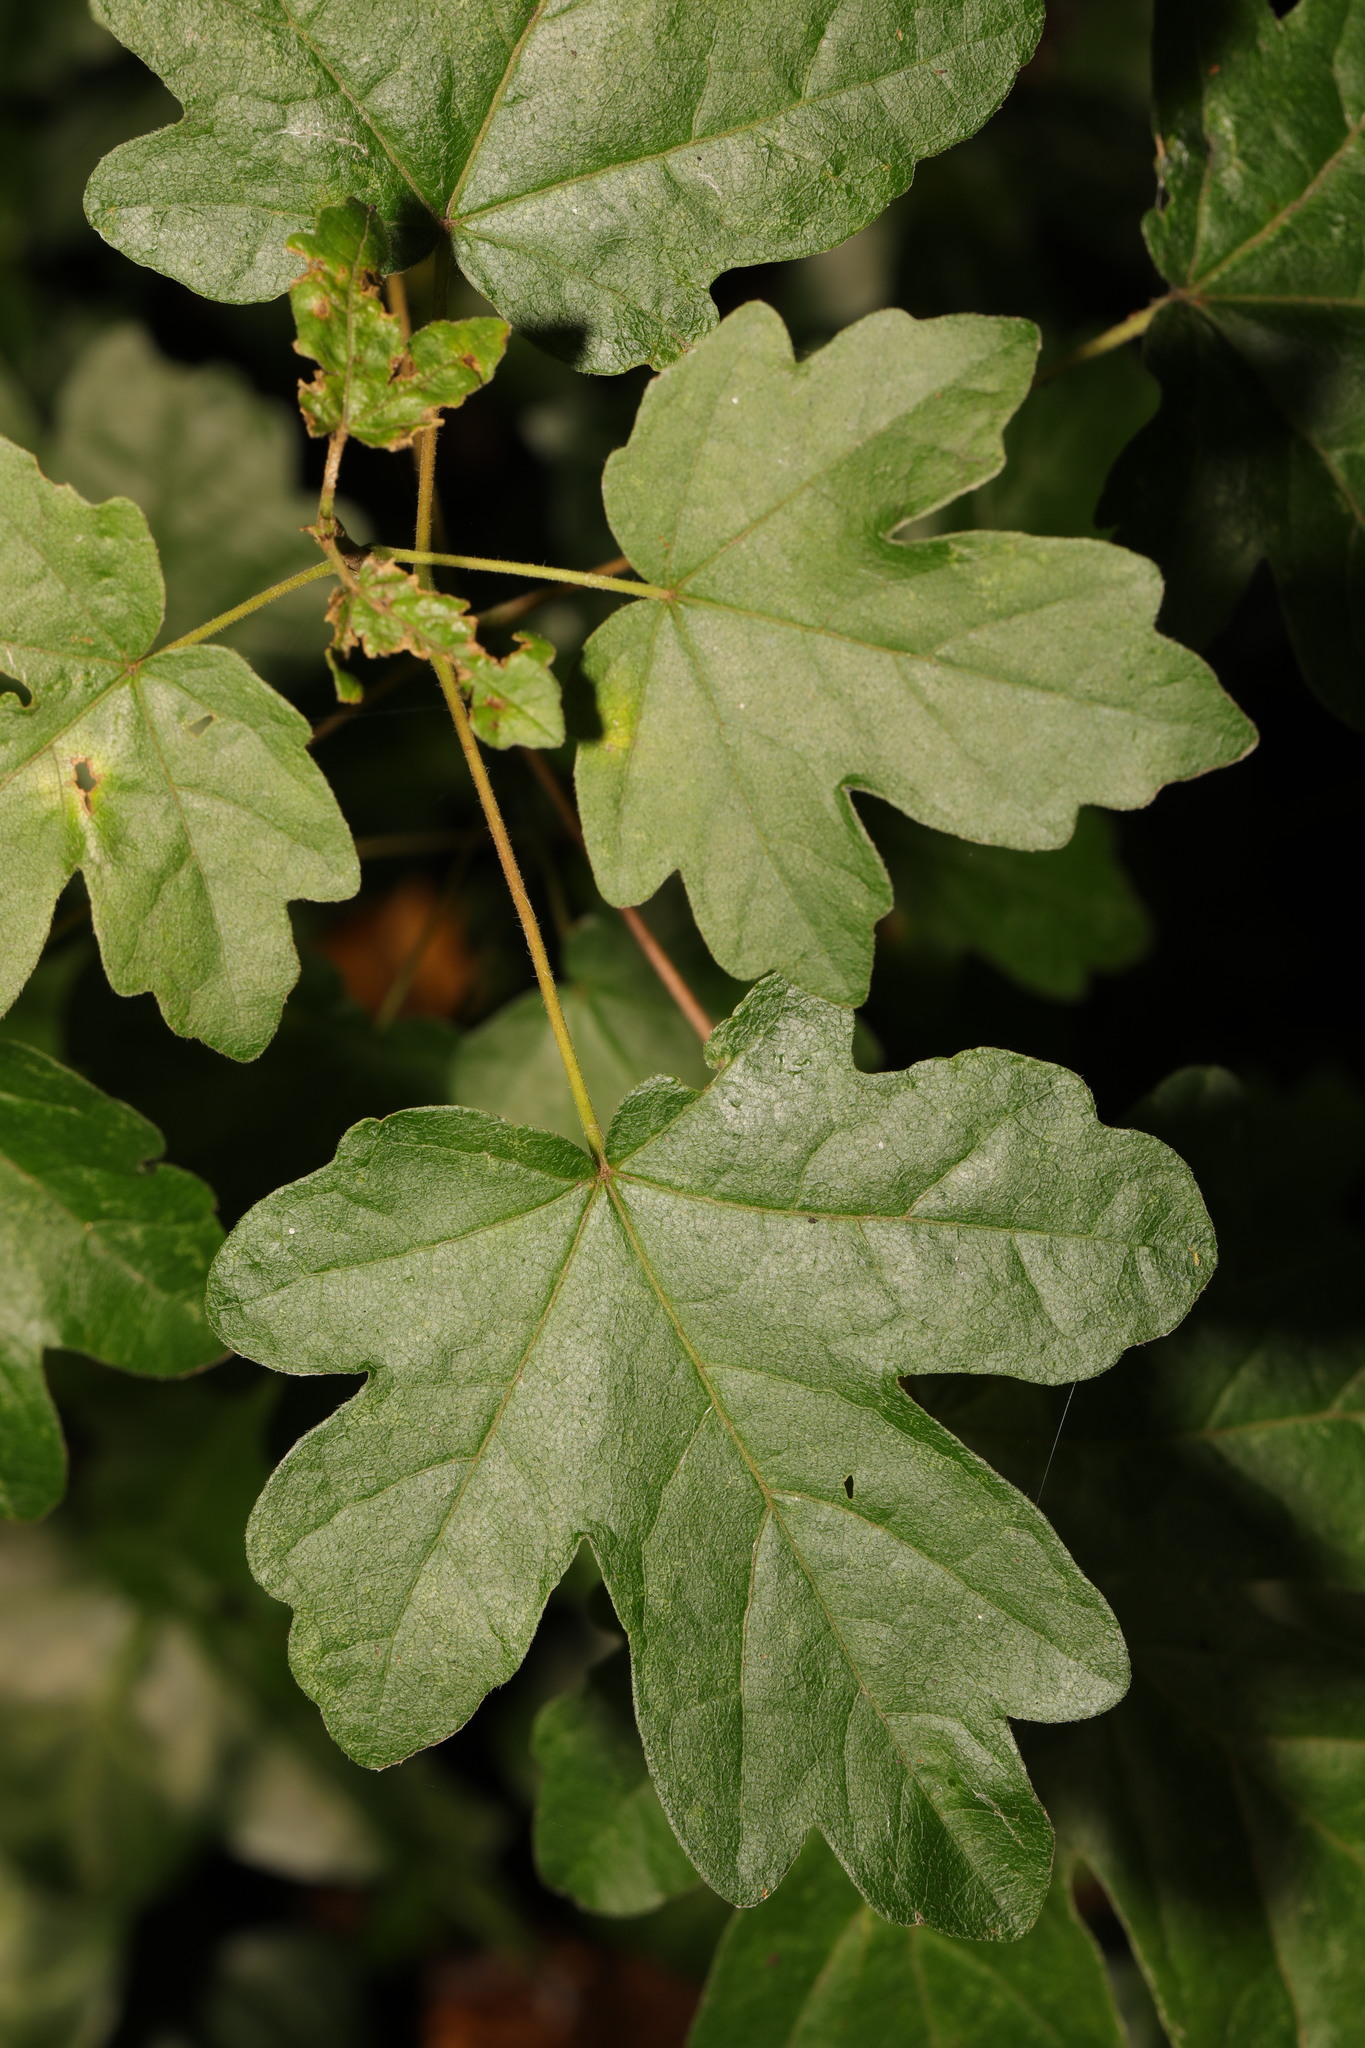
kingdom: Plantae
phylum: Tracheophyta
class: Magnoliopsida
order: Sapindales
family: Sapindaceae
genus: Acer
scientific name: Acer campestre
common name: Field maple
